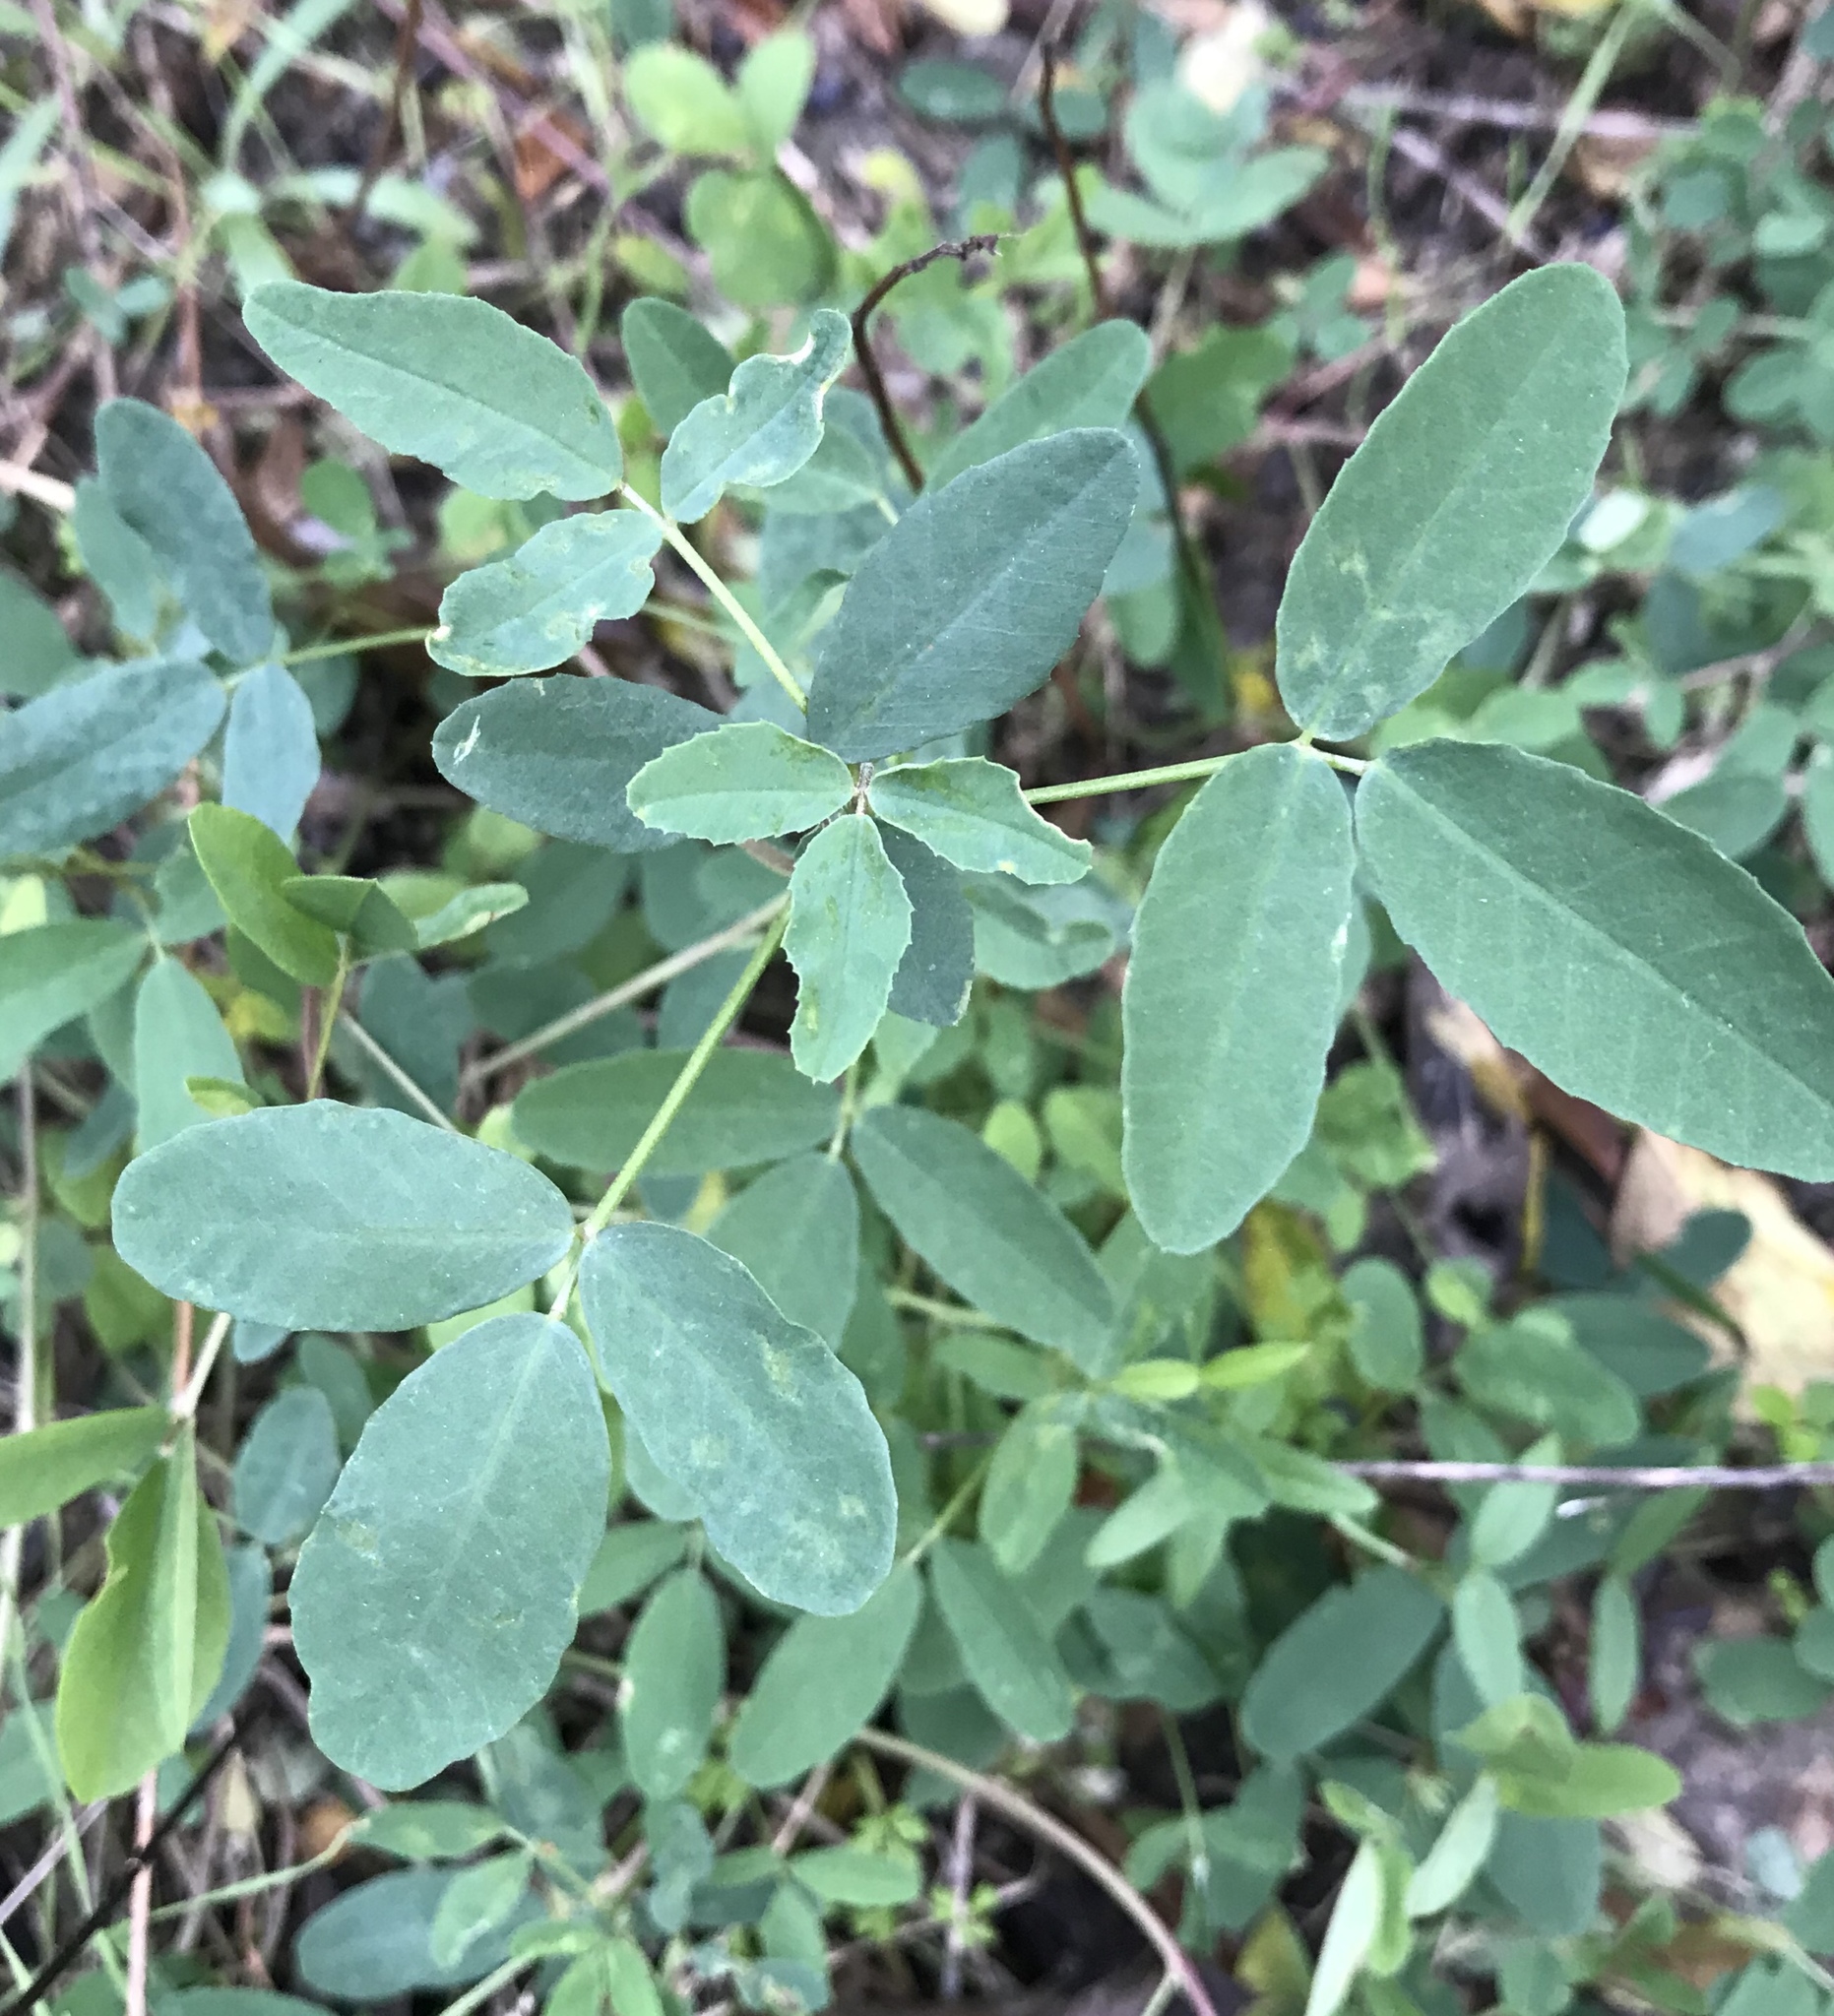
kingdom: Plantae
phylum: Tracheophyta
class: Magnoliopsida
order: Fabales
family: Fabaceae
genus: Melilotus
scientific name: Melilotus albus
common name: White melilot
